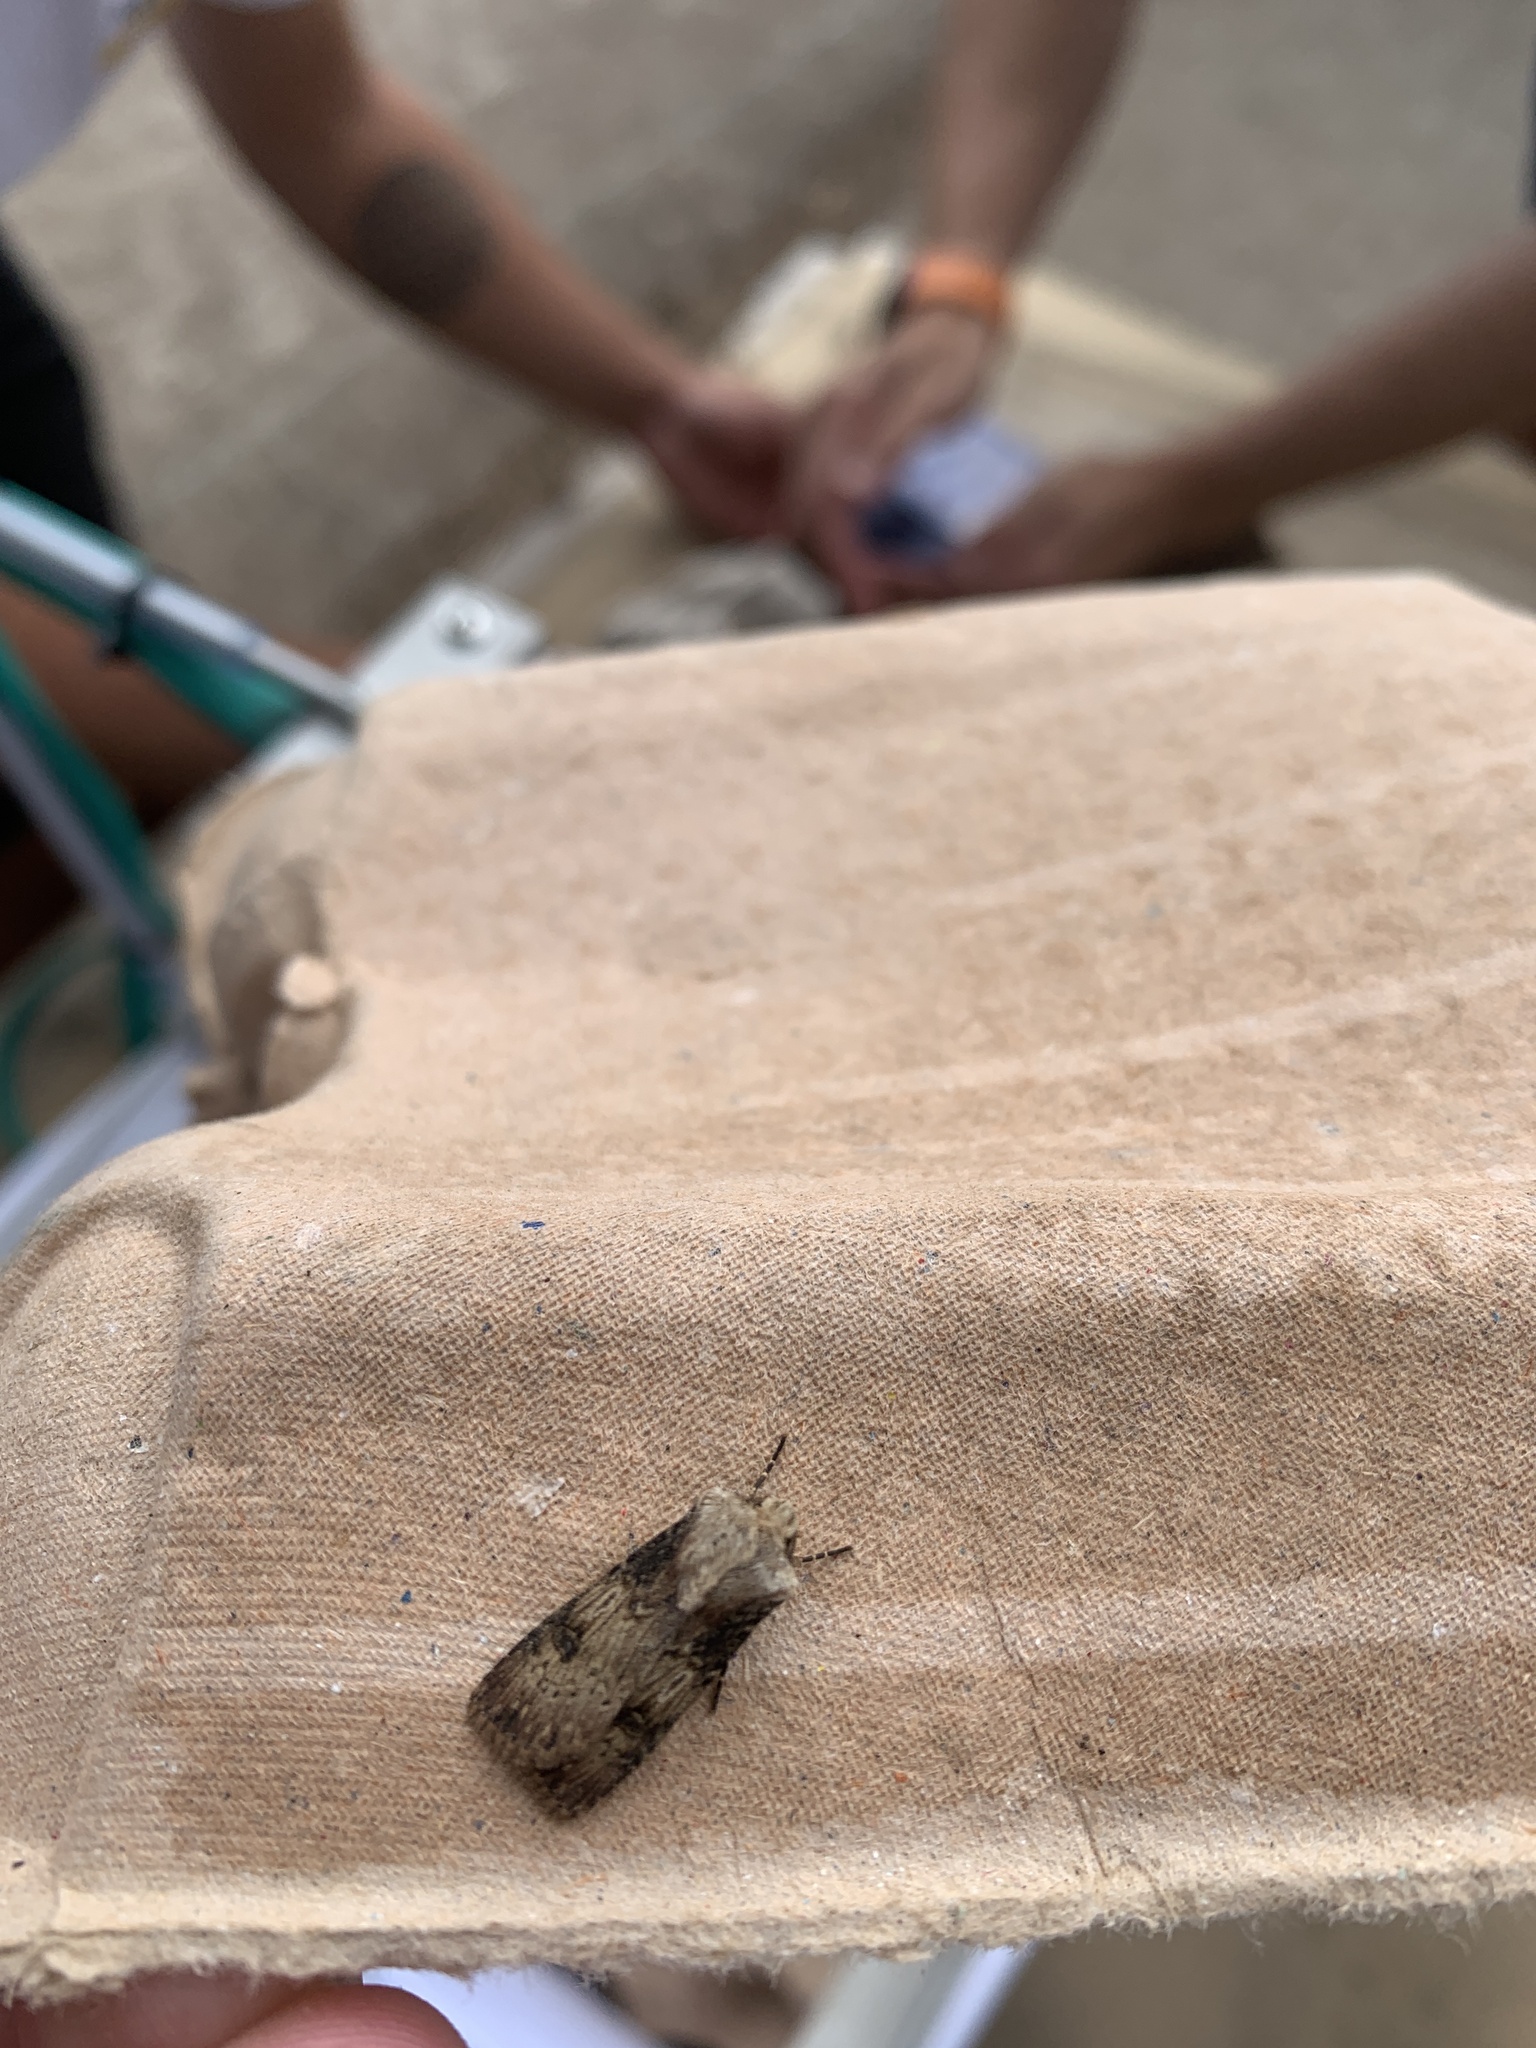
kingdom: Animalia
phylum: Arthropoda
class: Insecta
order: Lepidoptera
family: Noctuidae
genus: Agrotis
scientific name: Agrotis puta
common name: Shuttle-shaped dart
